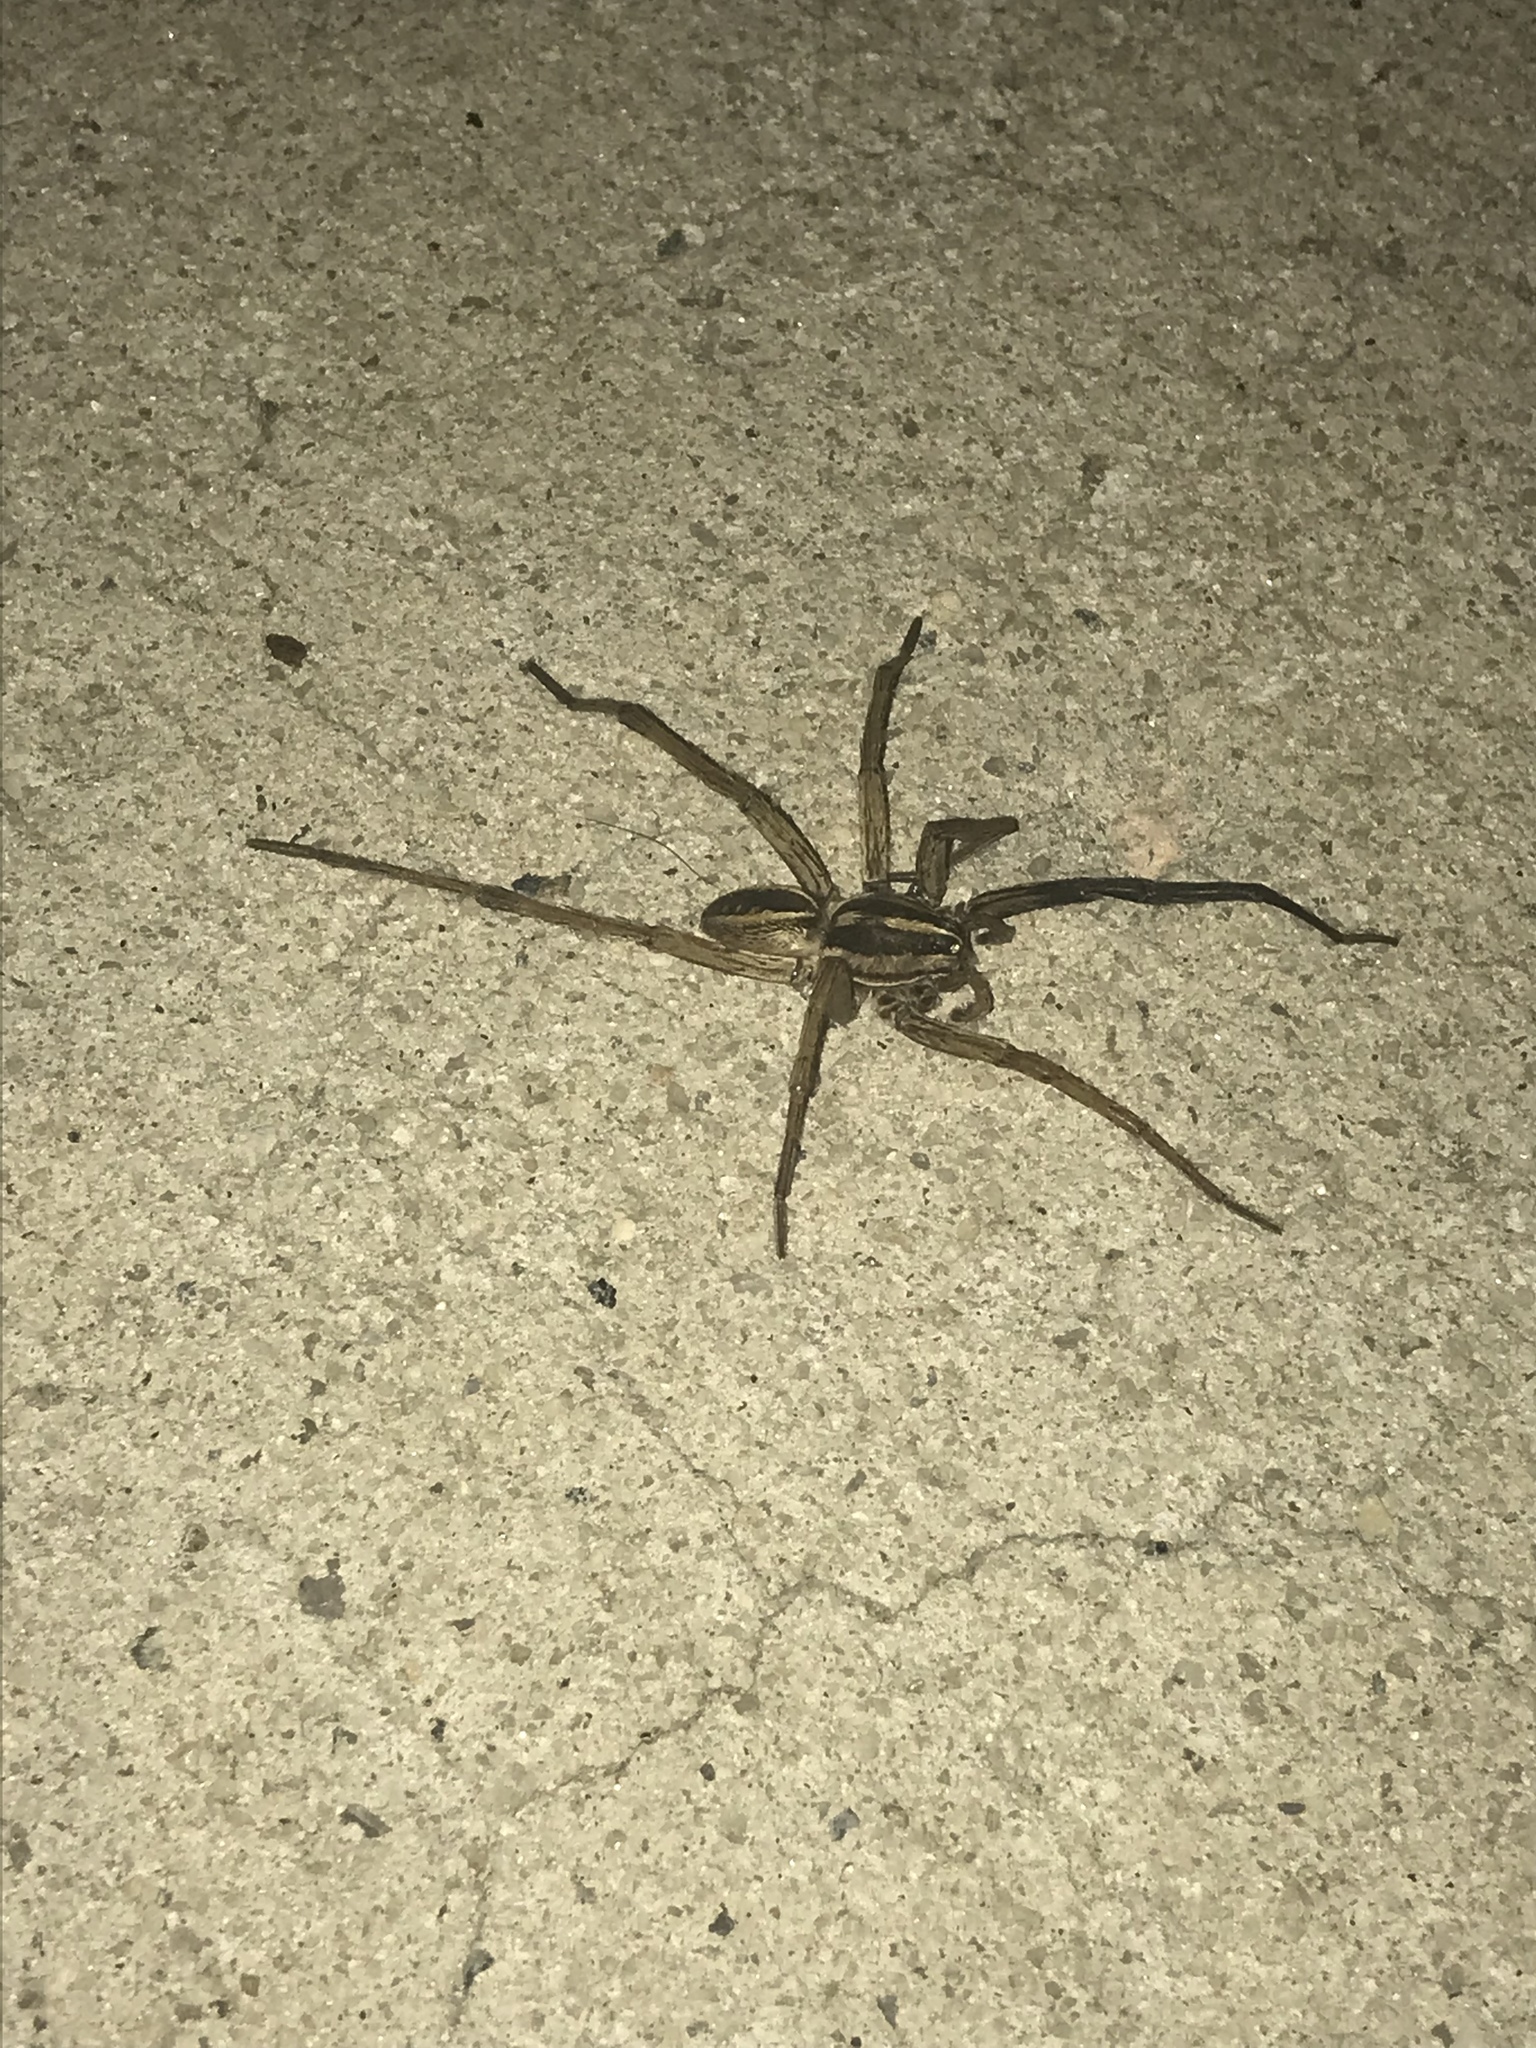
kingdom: Animalia
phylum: Arthropoda
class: Arachnida
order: Araneae
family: Lycosidae
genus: Rabidosa
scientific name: Rabidosa rabida
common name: Rabid wolf spider
